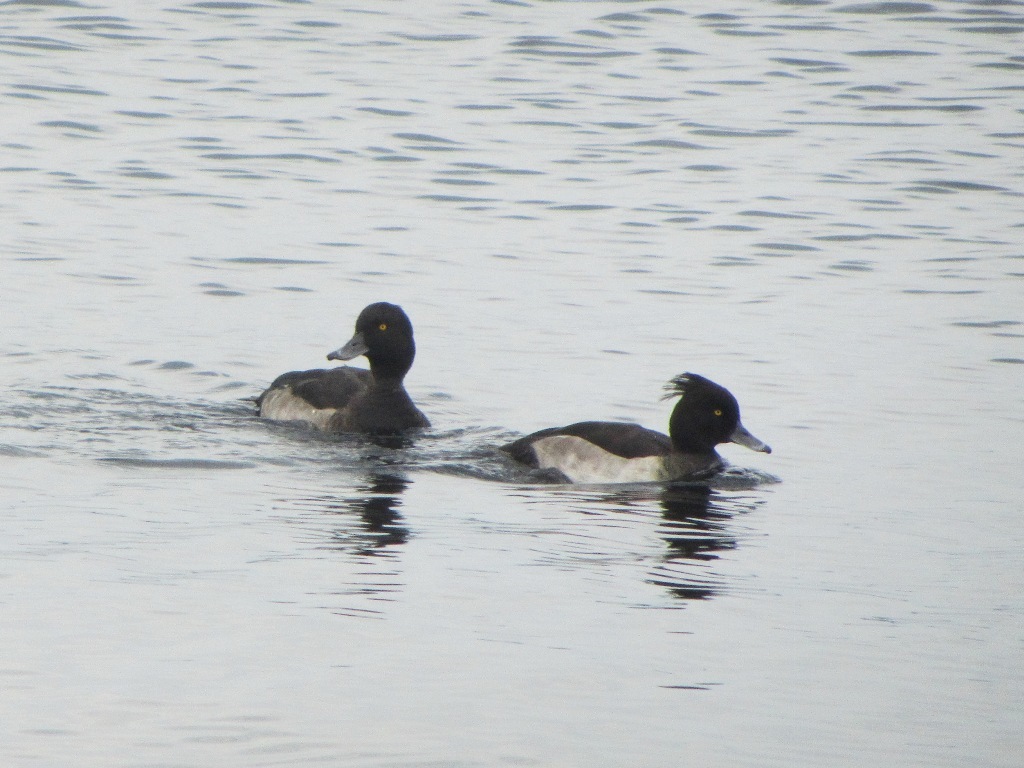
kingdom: Animalia
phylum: Chordata
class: Aves
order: Anseriformes
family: Anatidae
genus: Aythya
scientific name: Aythya fuligula
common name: Tufted duck
